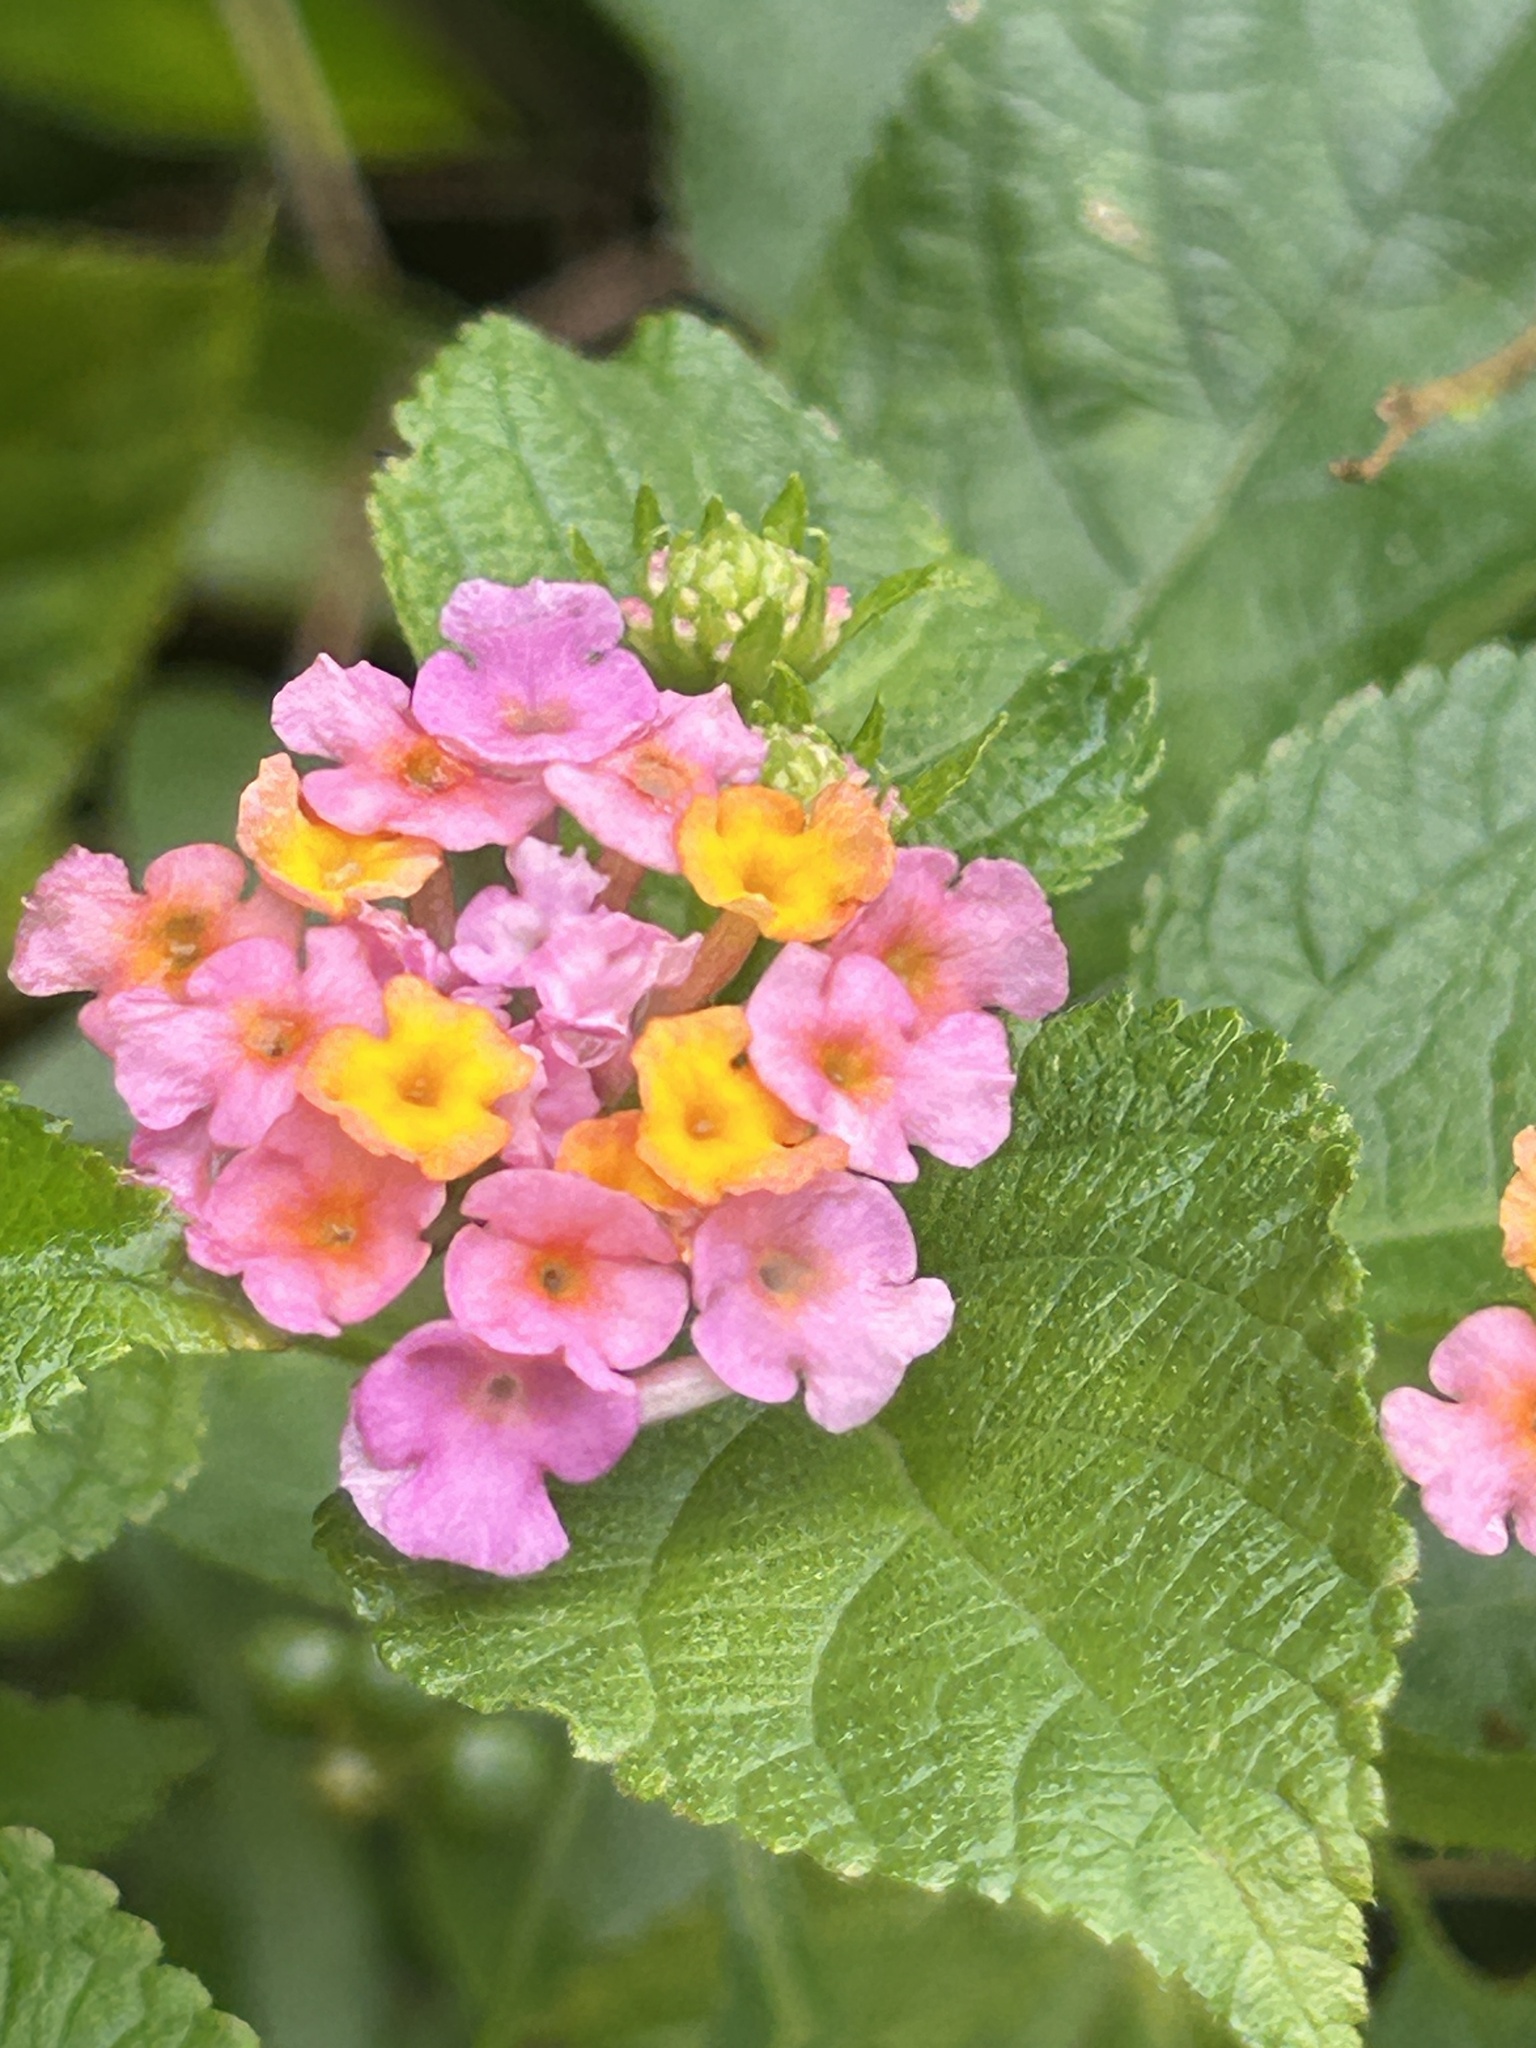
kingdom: Plantae
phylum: Tracheophyta
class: Magnoliopsida
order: Lamiales
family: Verbenaceae
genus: Lantana
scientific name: Lantana camara
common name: Lantana
